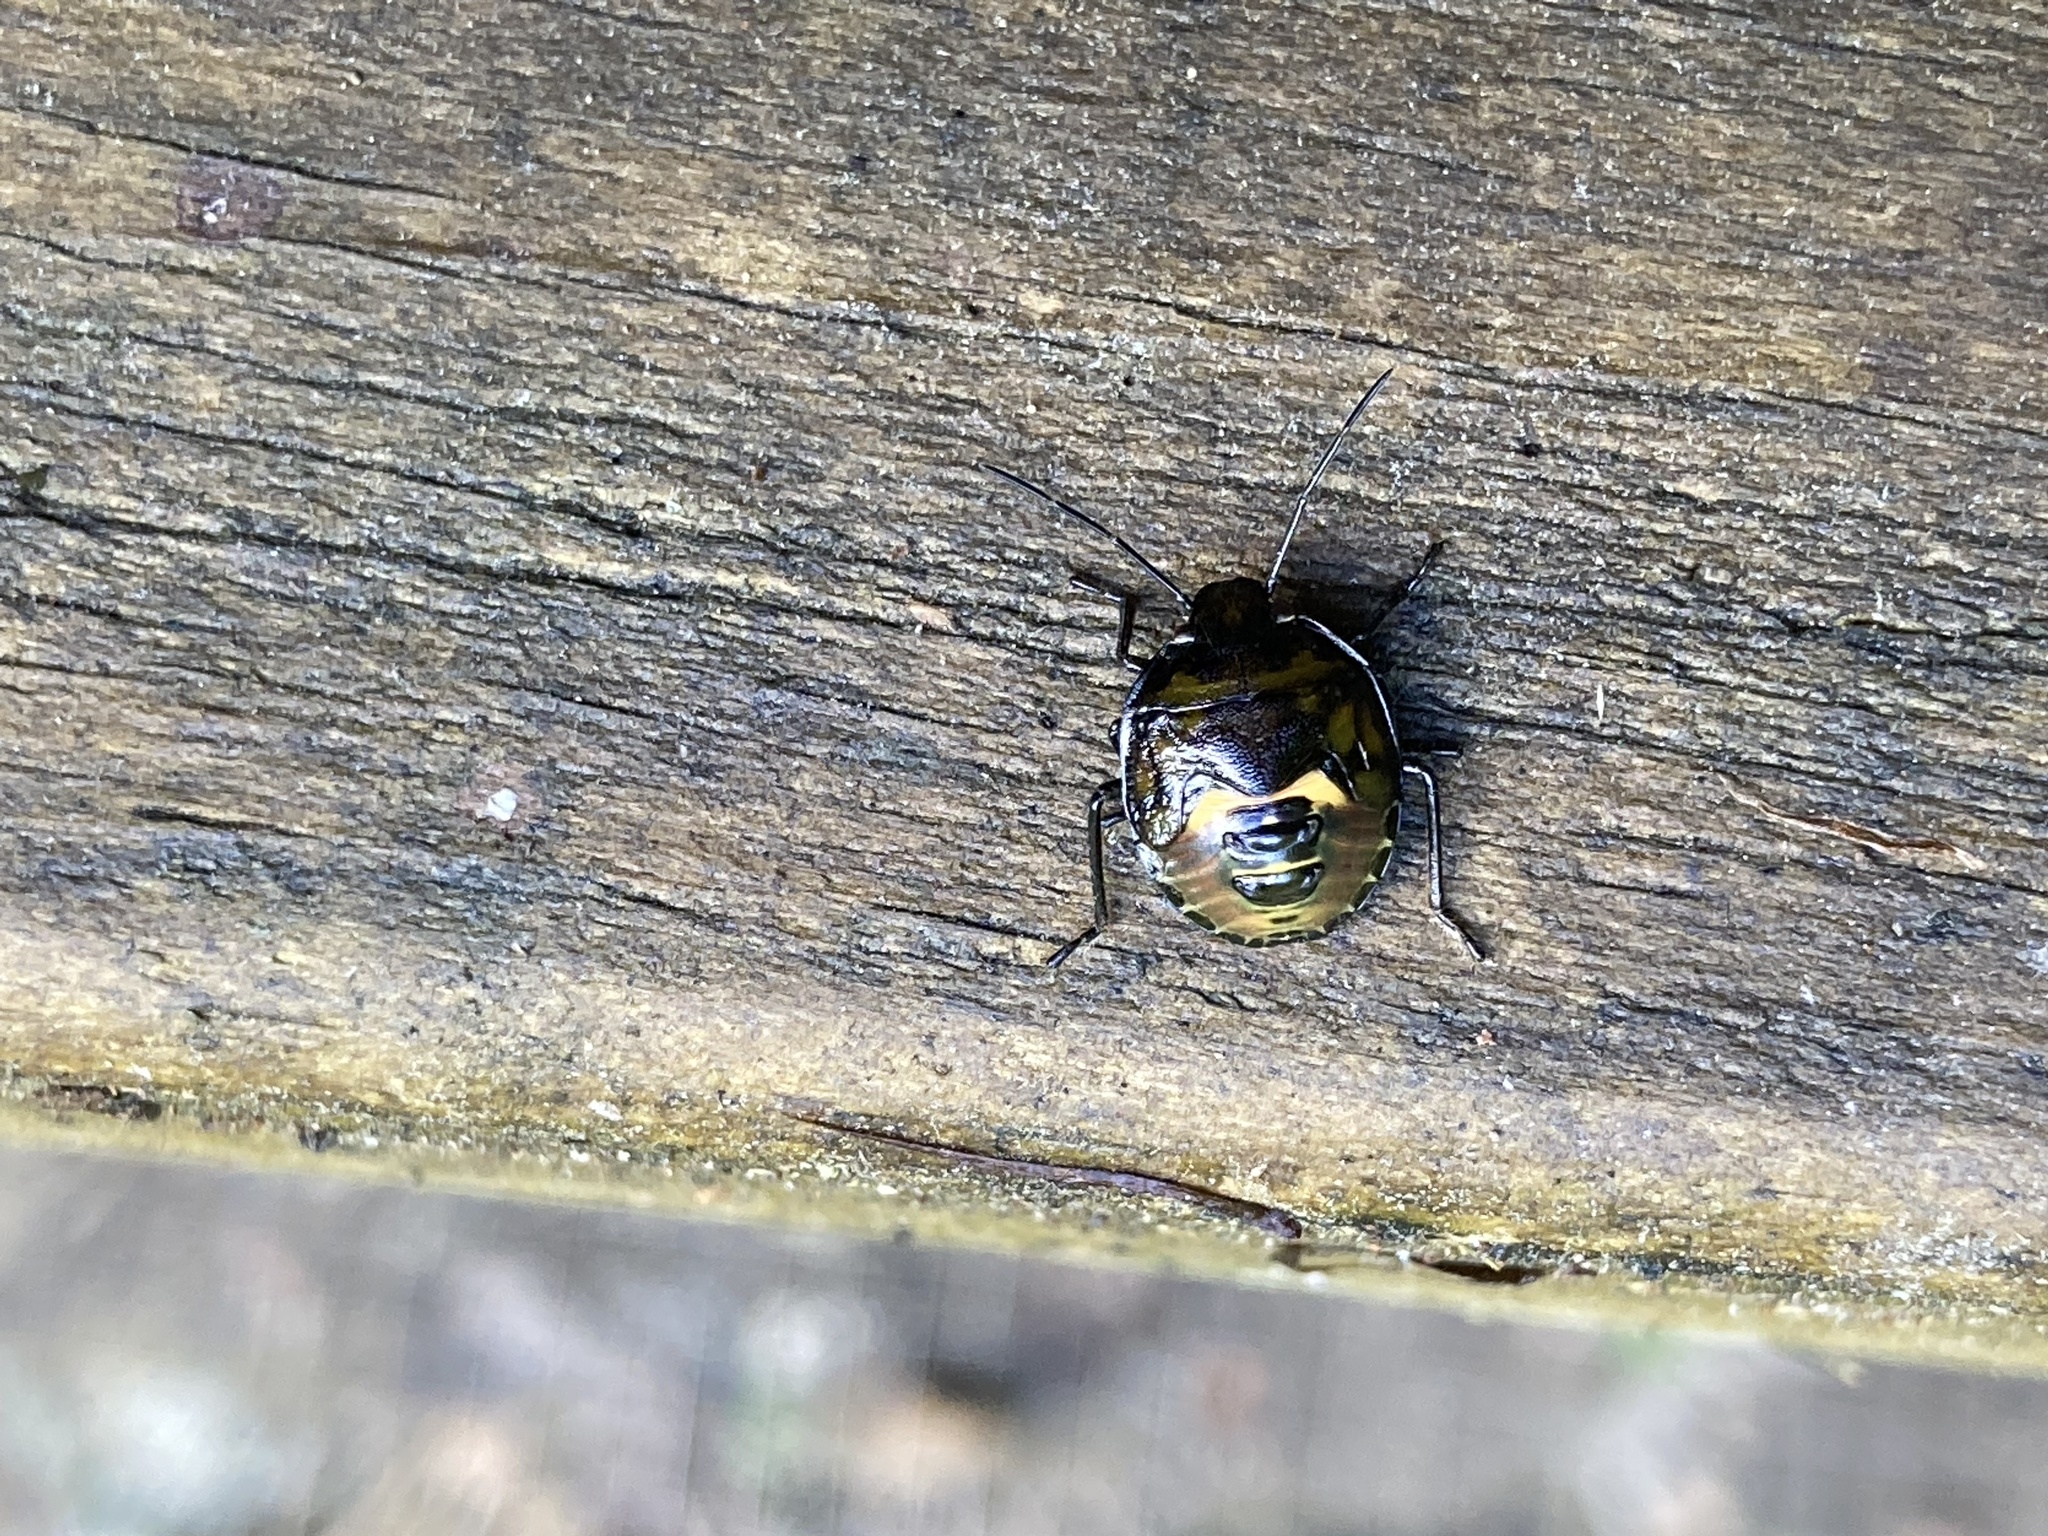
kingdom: Animalia
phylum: Arthropoda
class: Insecta
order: Hemiptera
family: Pentatomidae
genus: Glaucias
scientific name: Glaucias amyota
